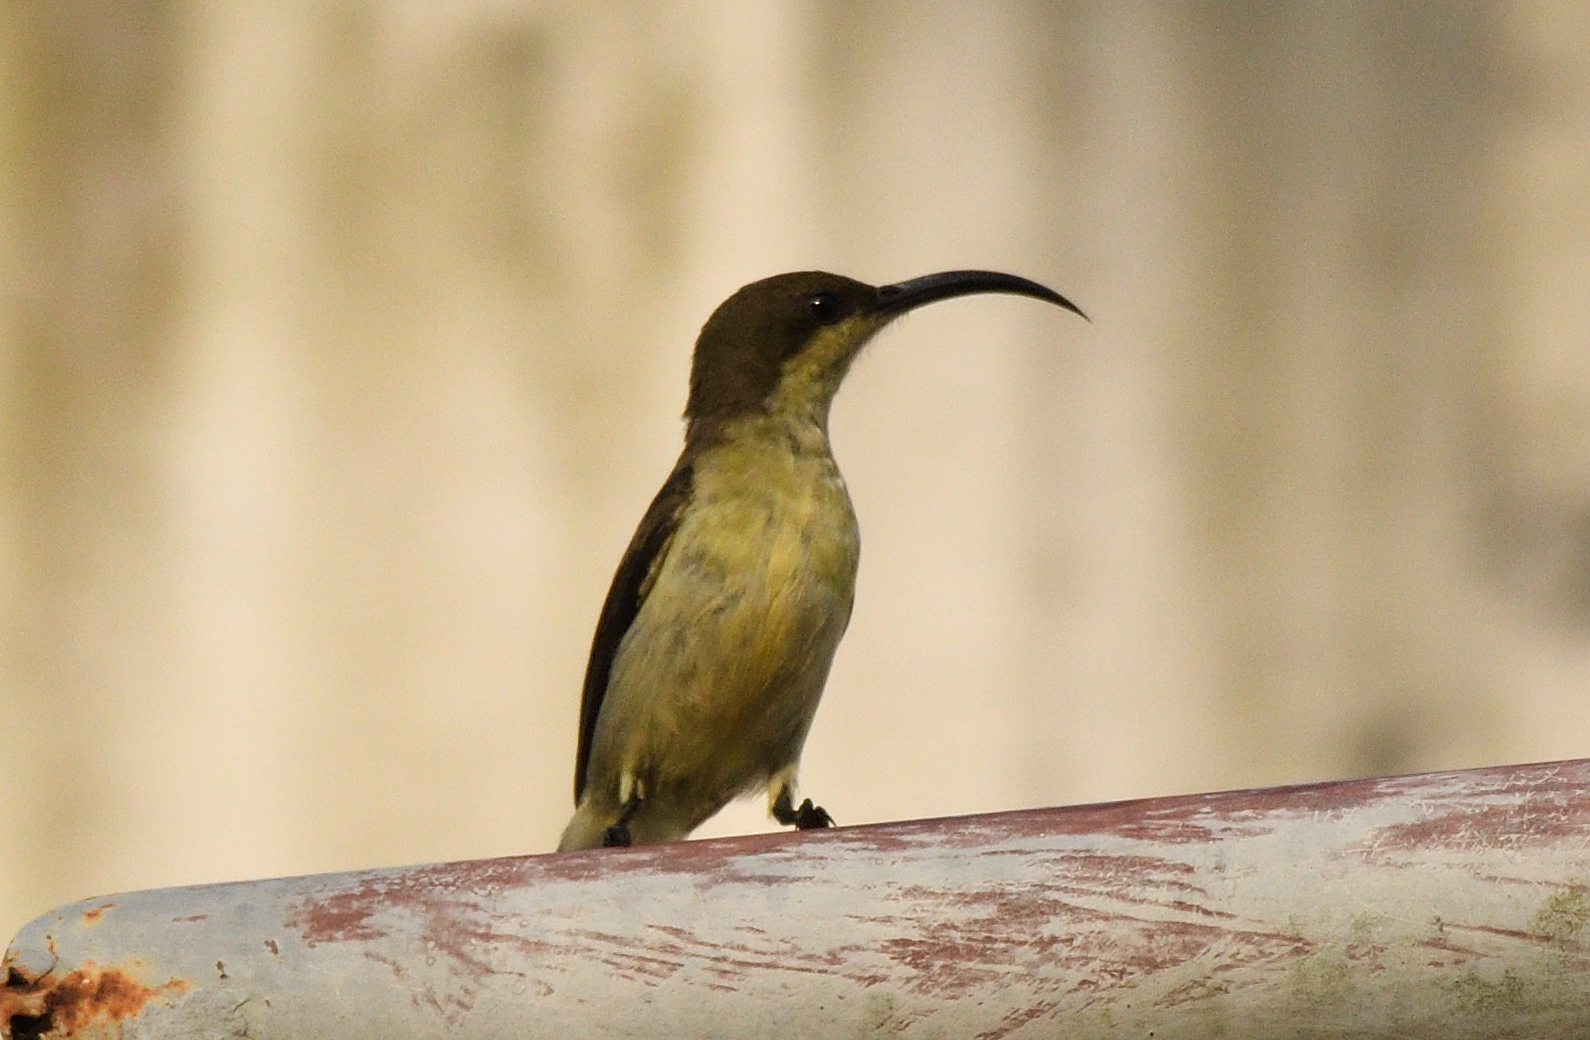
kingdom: Animalia
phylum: Chordata
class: Aves
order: Passeriformes
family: Nectariniidae
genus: Cinnyris
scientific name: Cinnyris lotenius
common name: Loten's sunbird
